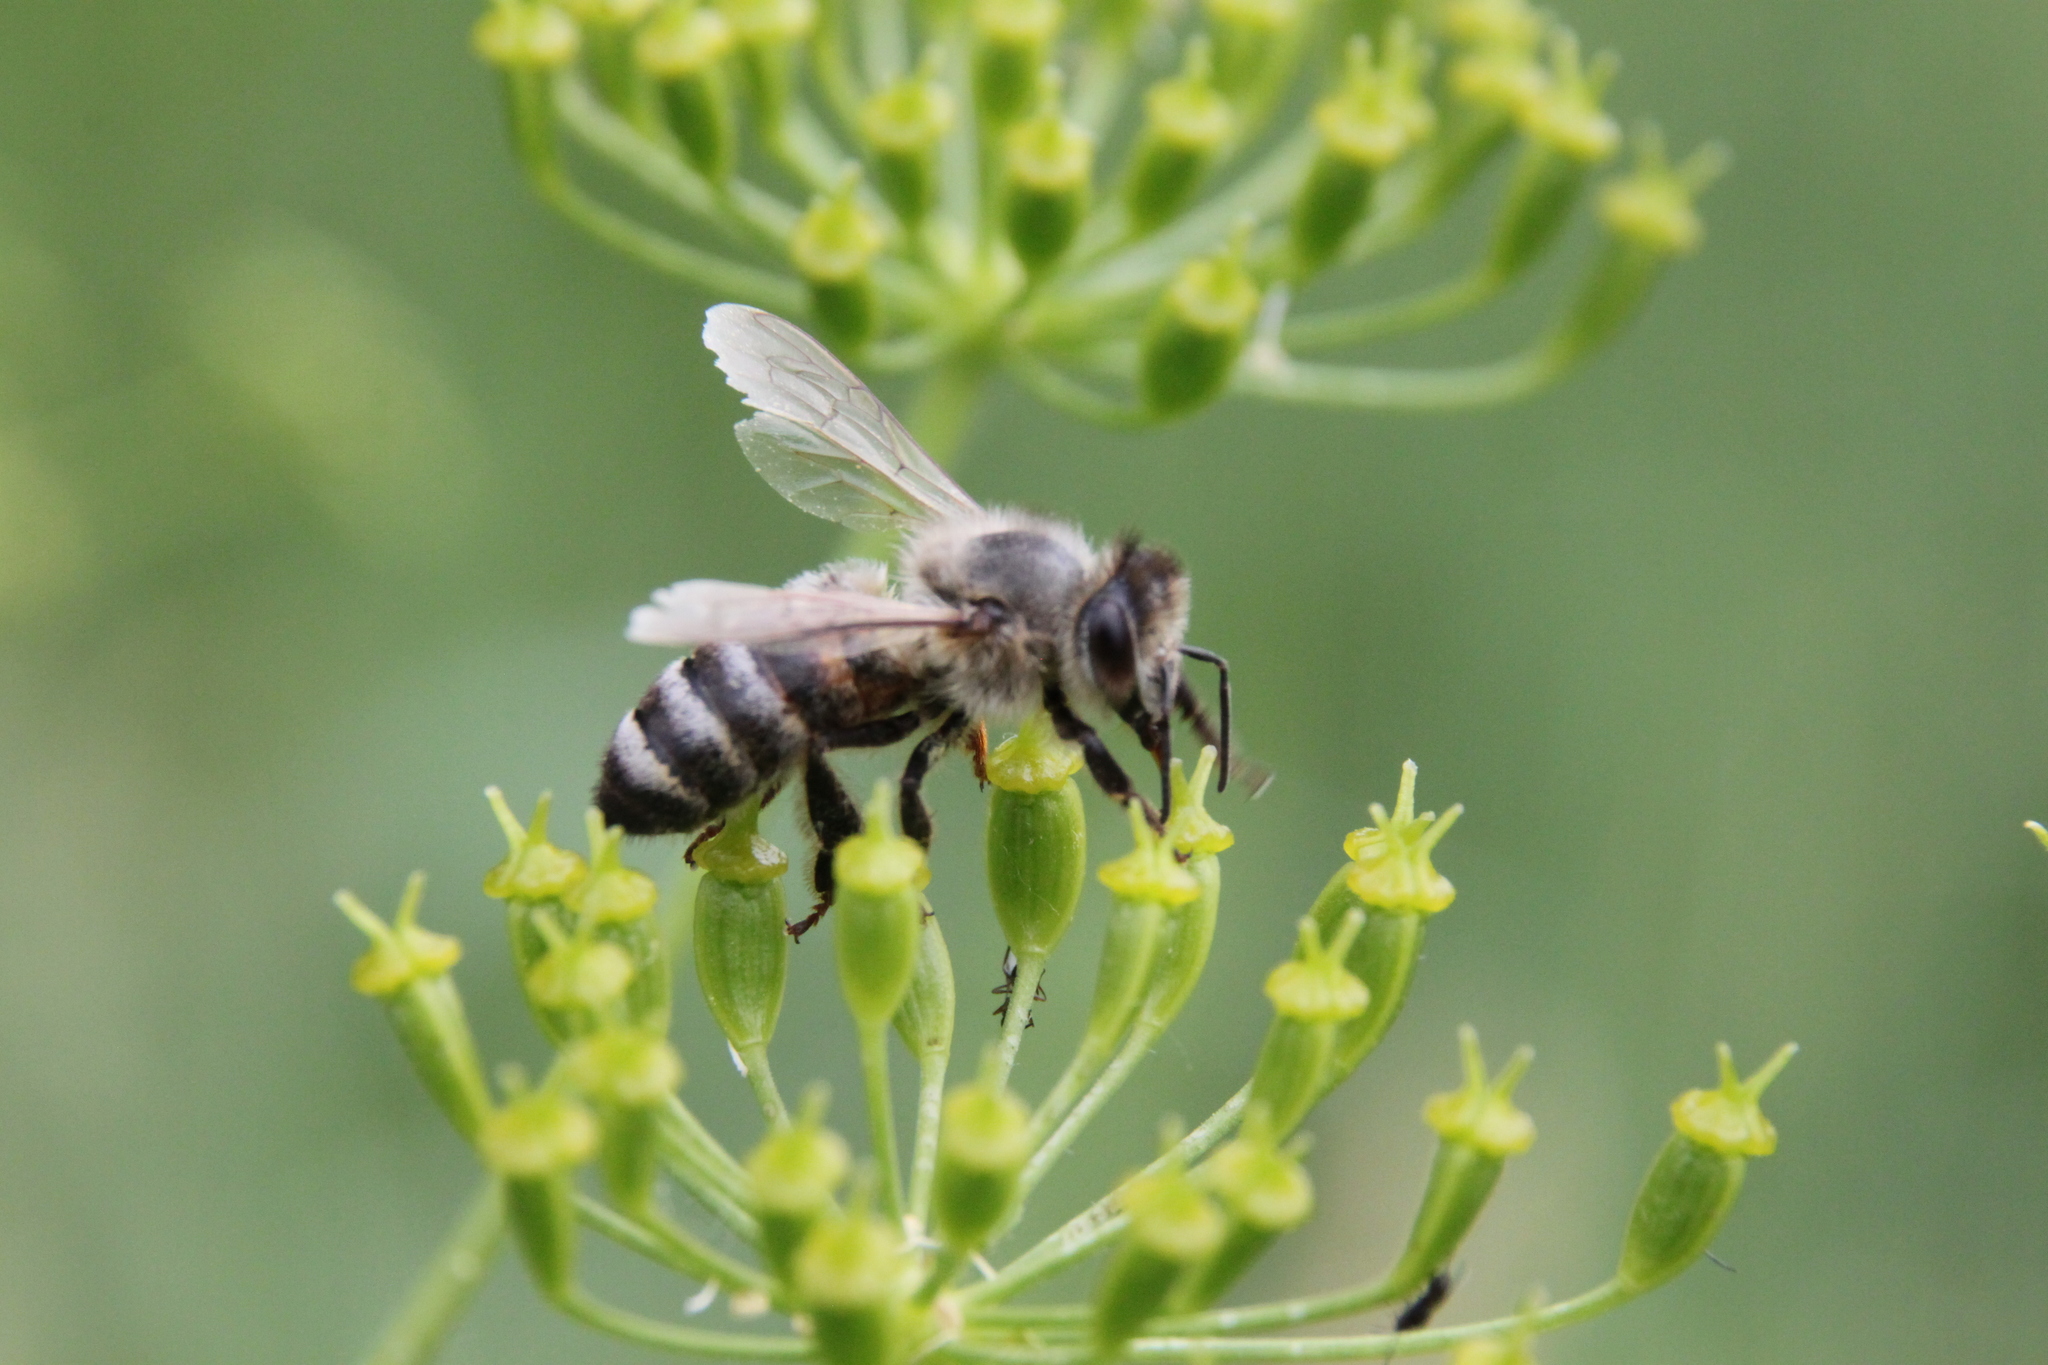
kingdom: Animalia
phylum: Arthropoda
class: Insecta
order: Hymenoptera
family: Apidae
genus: Apis
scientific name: Apis mellifera
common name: Honey bee
